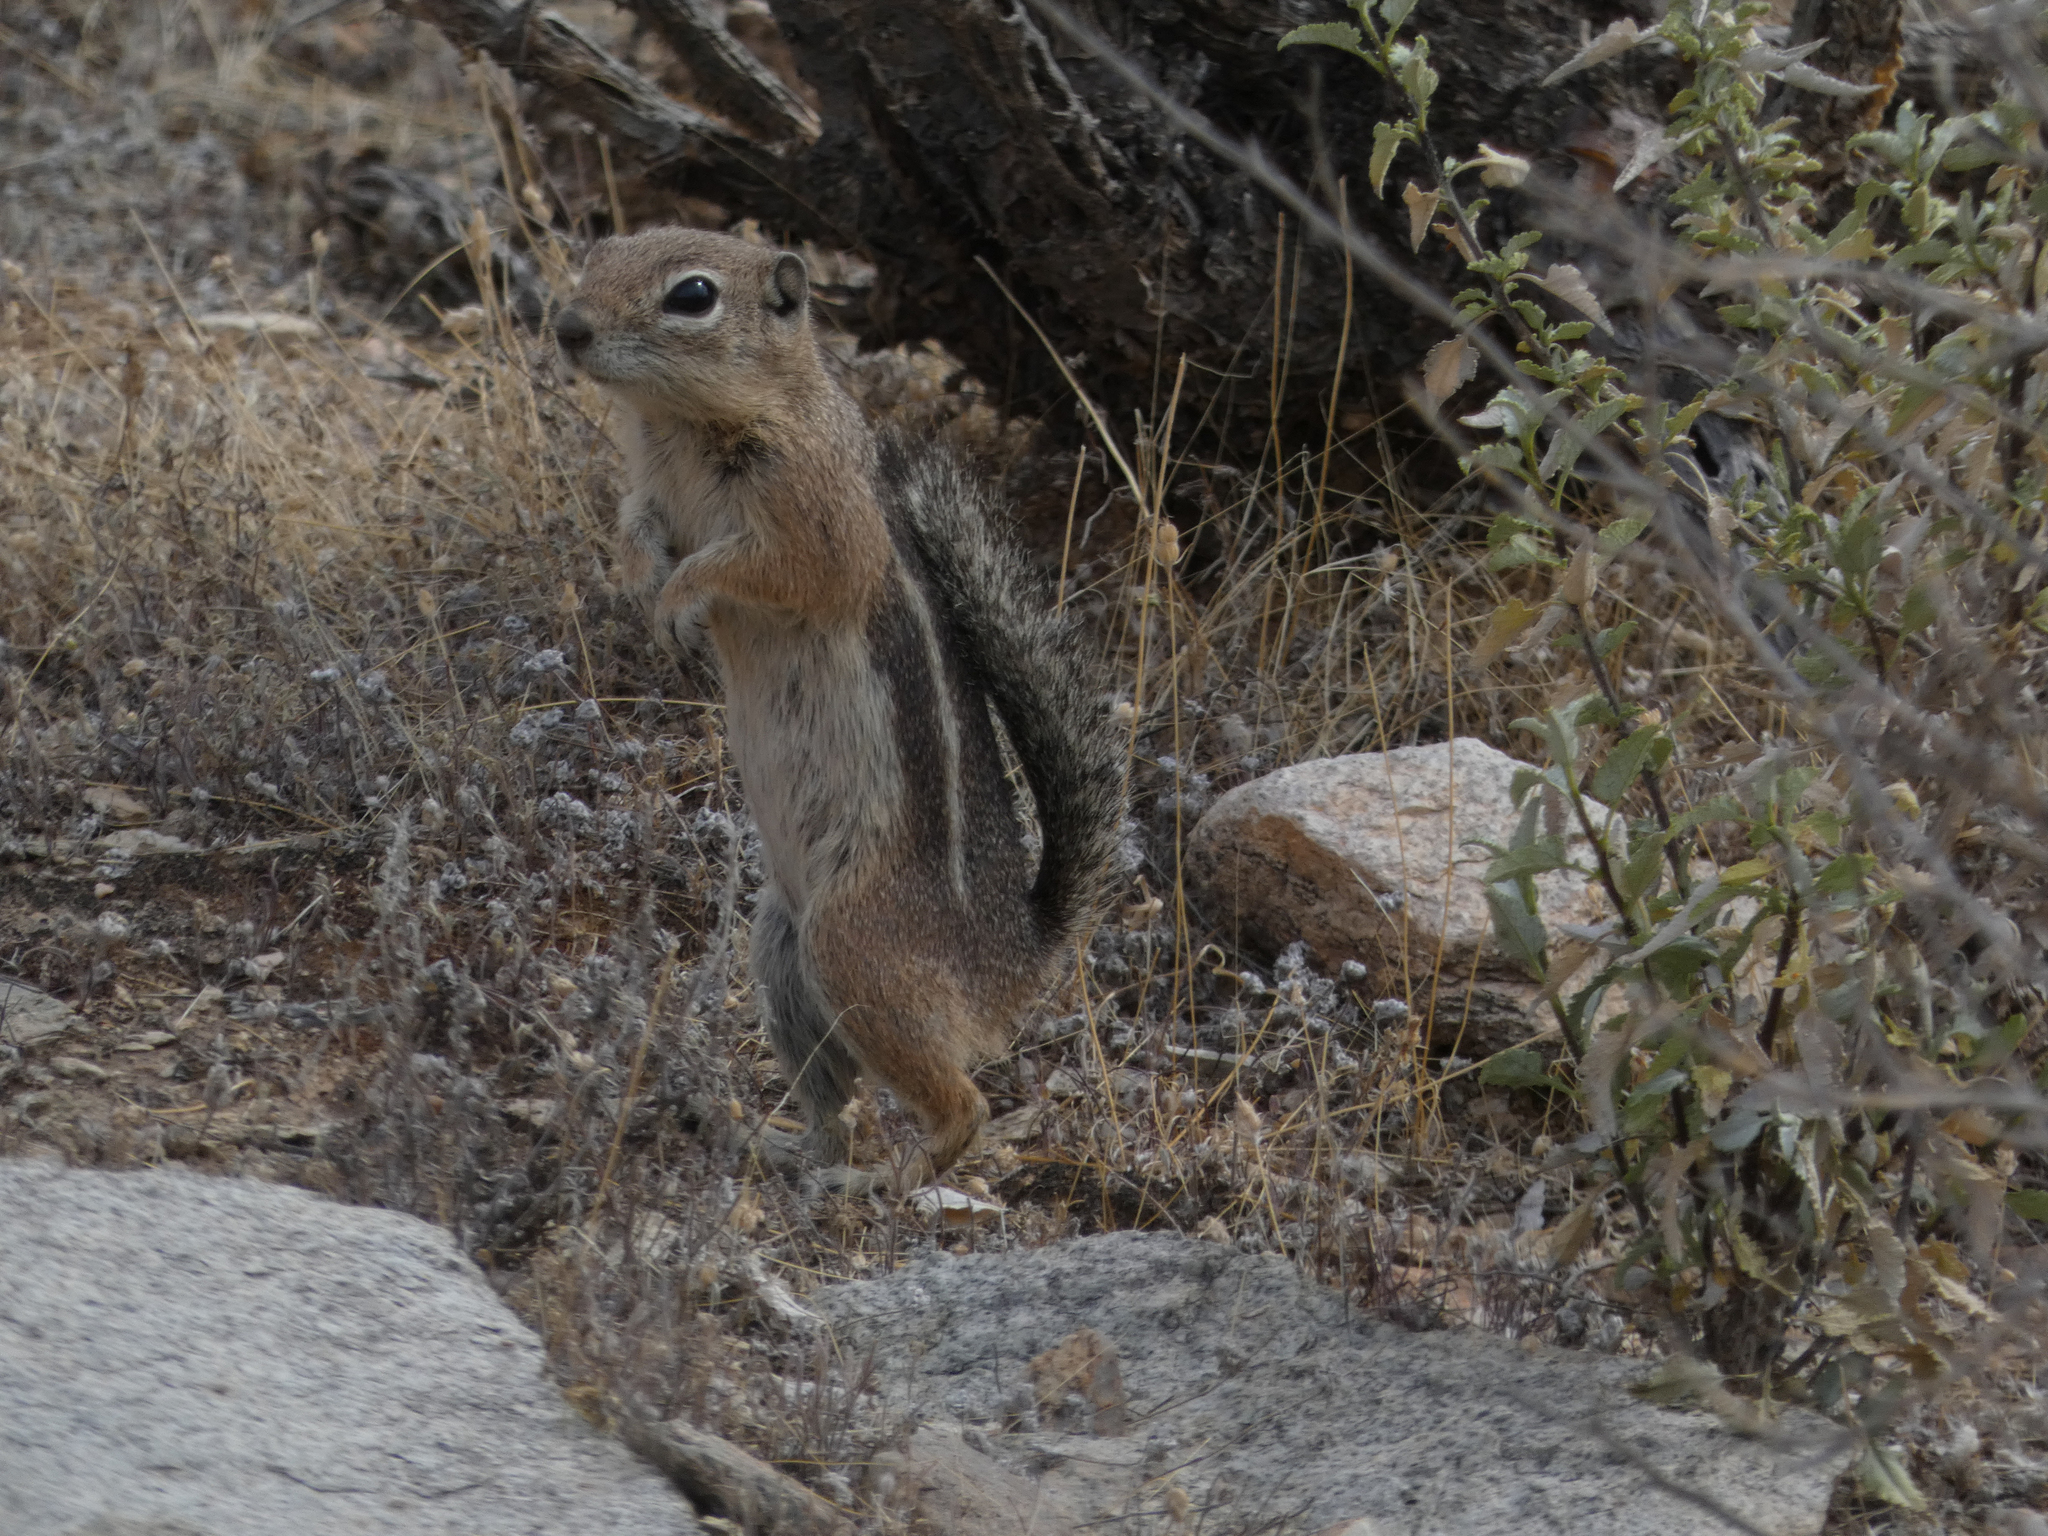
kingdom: Animalia
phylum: Chordata
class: Mammalia
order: Rodentia
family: Sciuridae
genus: Ammospermophilus
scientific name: Ammospermophilus harrisii
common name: Harris's antelope squirrel
